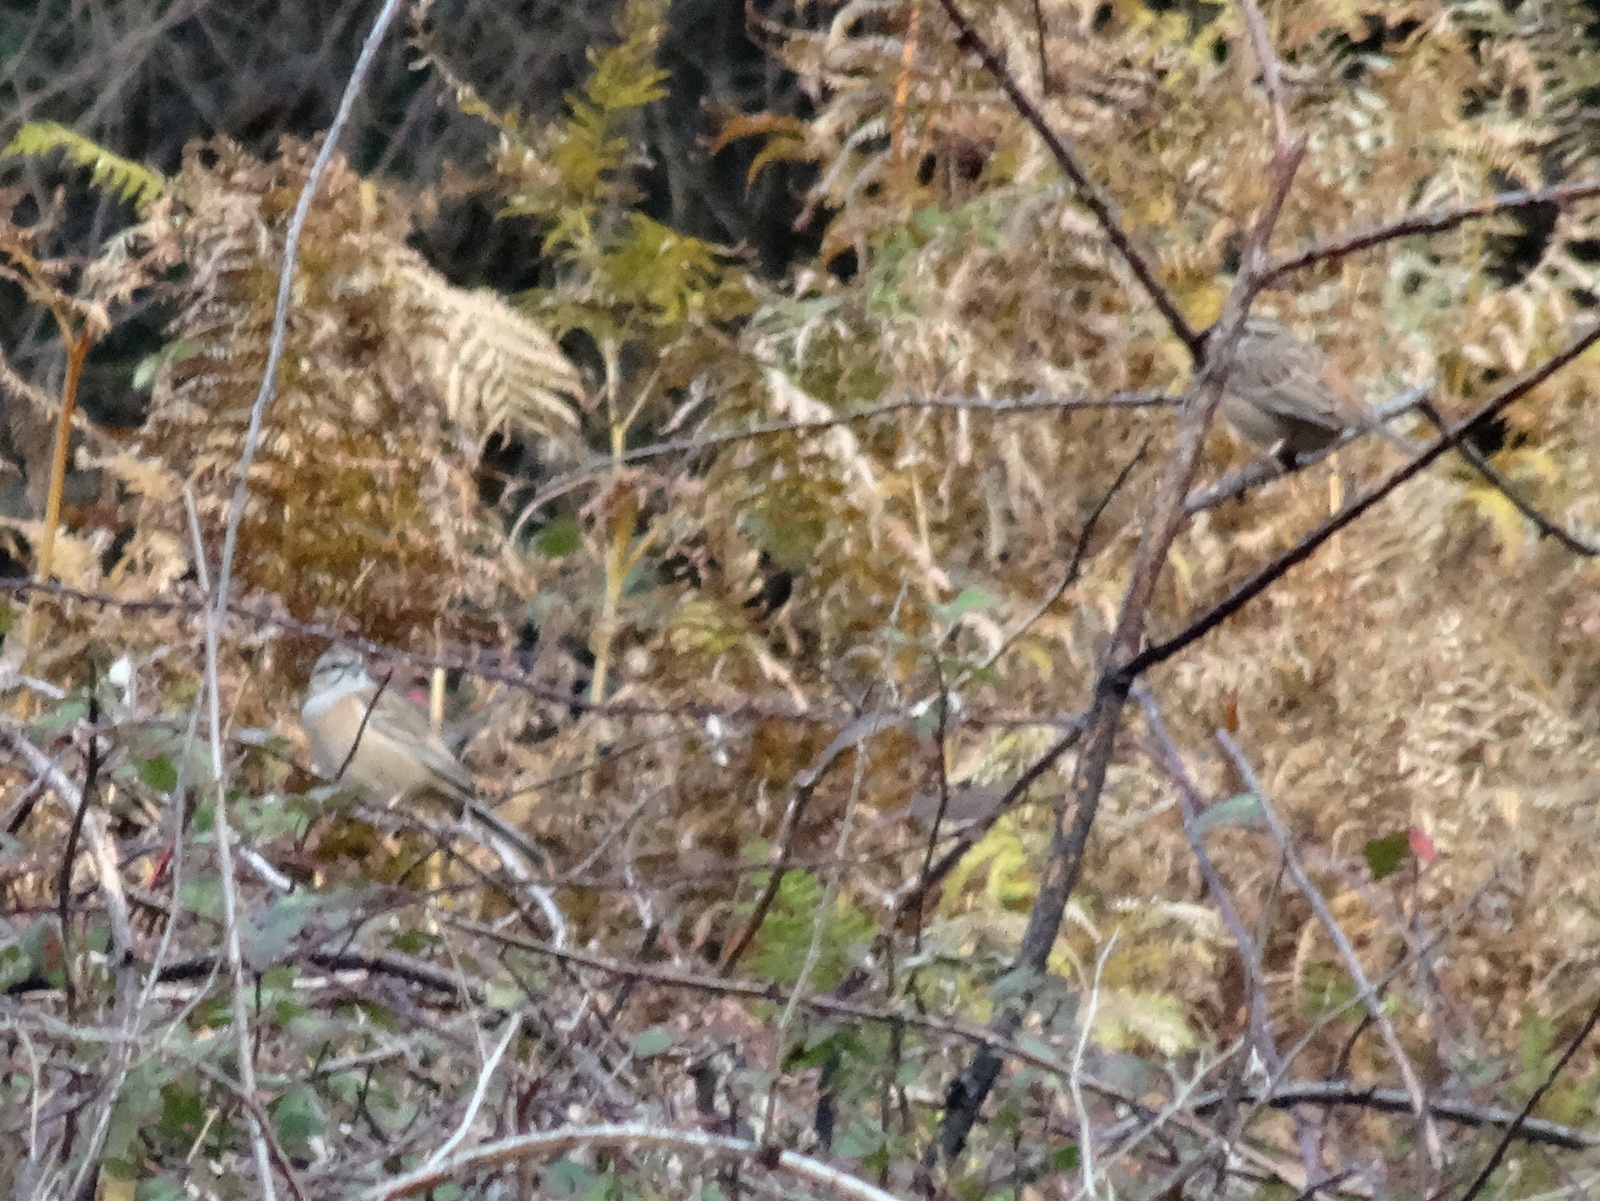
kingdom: Animalia
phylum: Chordata
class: Aves
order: Passeriformes
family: Emberizidae
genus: Emberiza
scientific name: Emberiza cia
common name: Rock bunting
